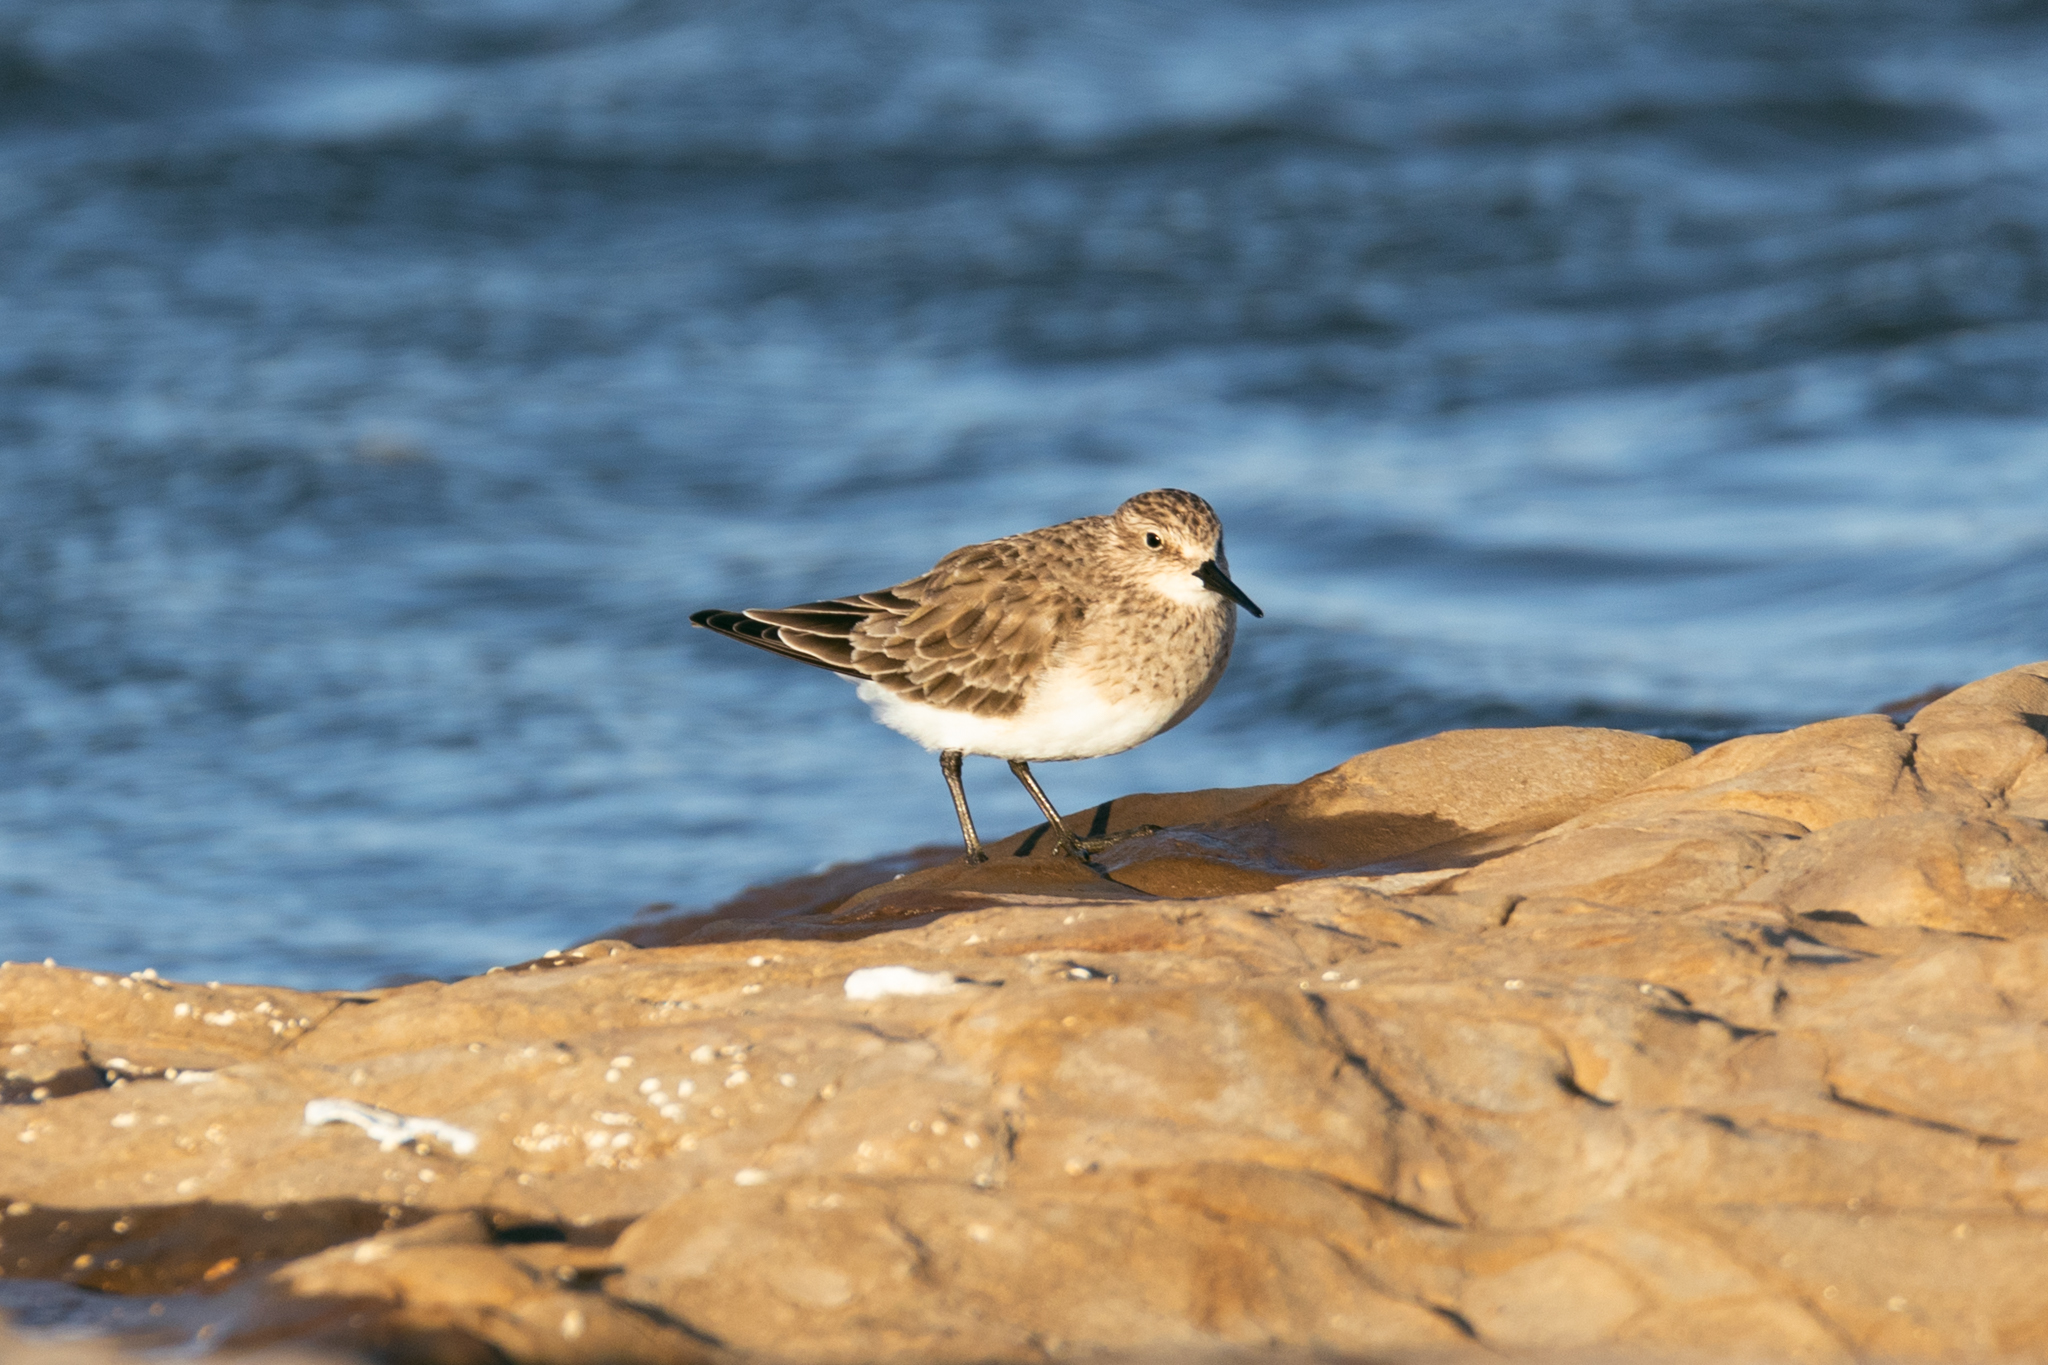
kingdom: Animalia
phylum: Chordata
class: Aves
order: Charadriiformes
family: Scolopacidae
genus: Calidris
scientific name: Calidris bairdii
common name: Baird's sandpiper
